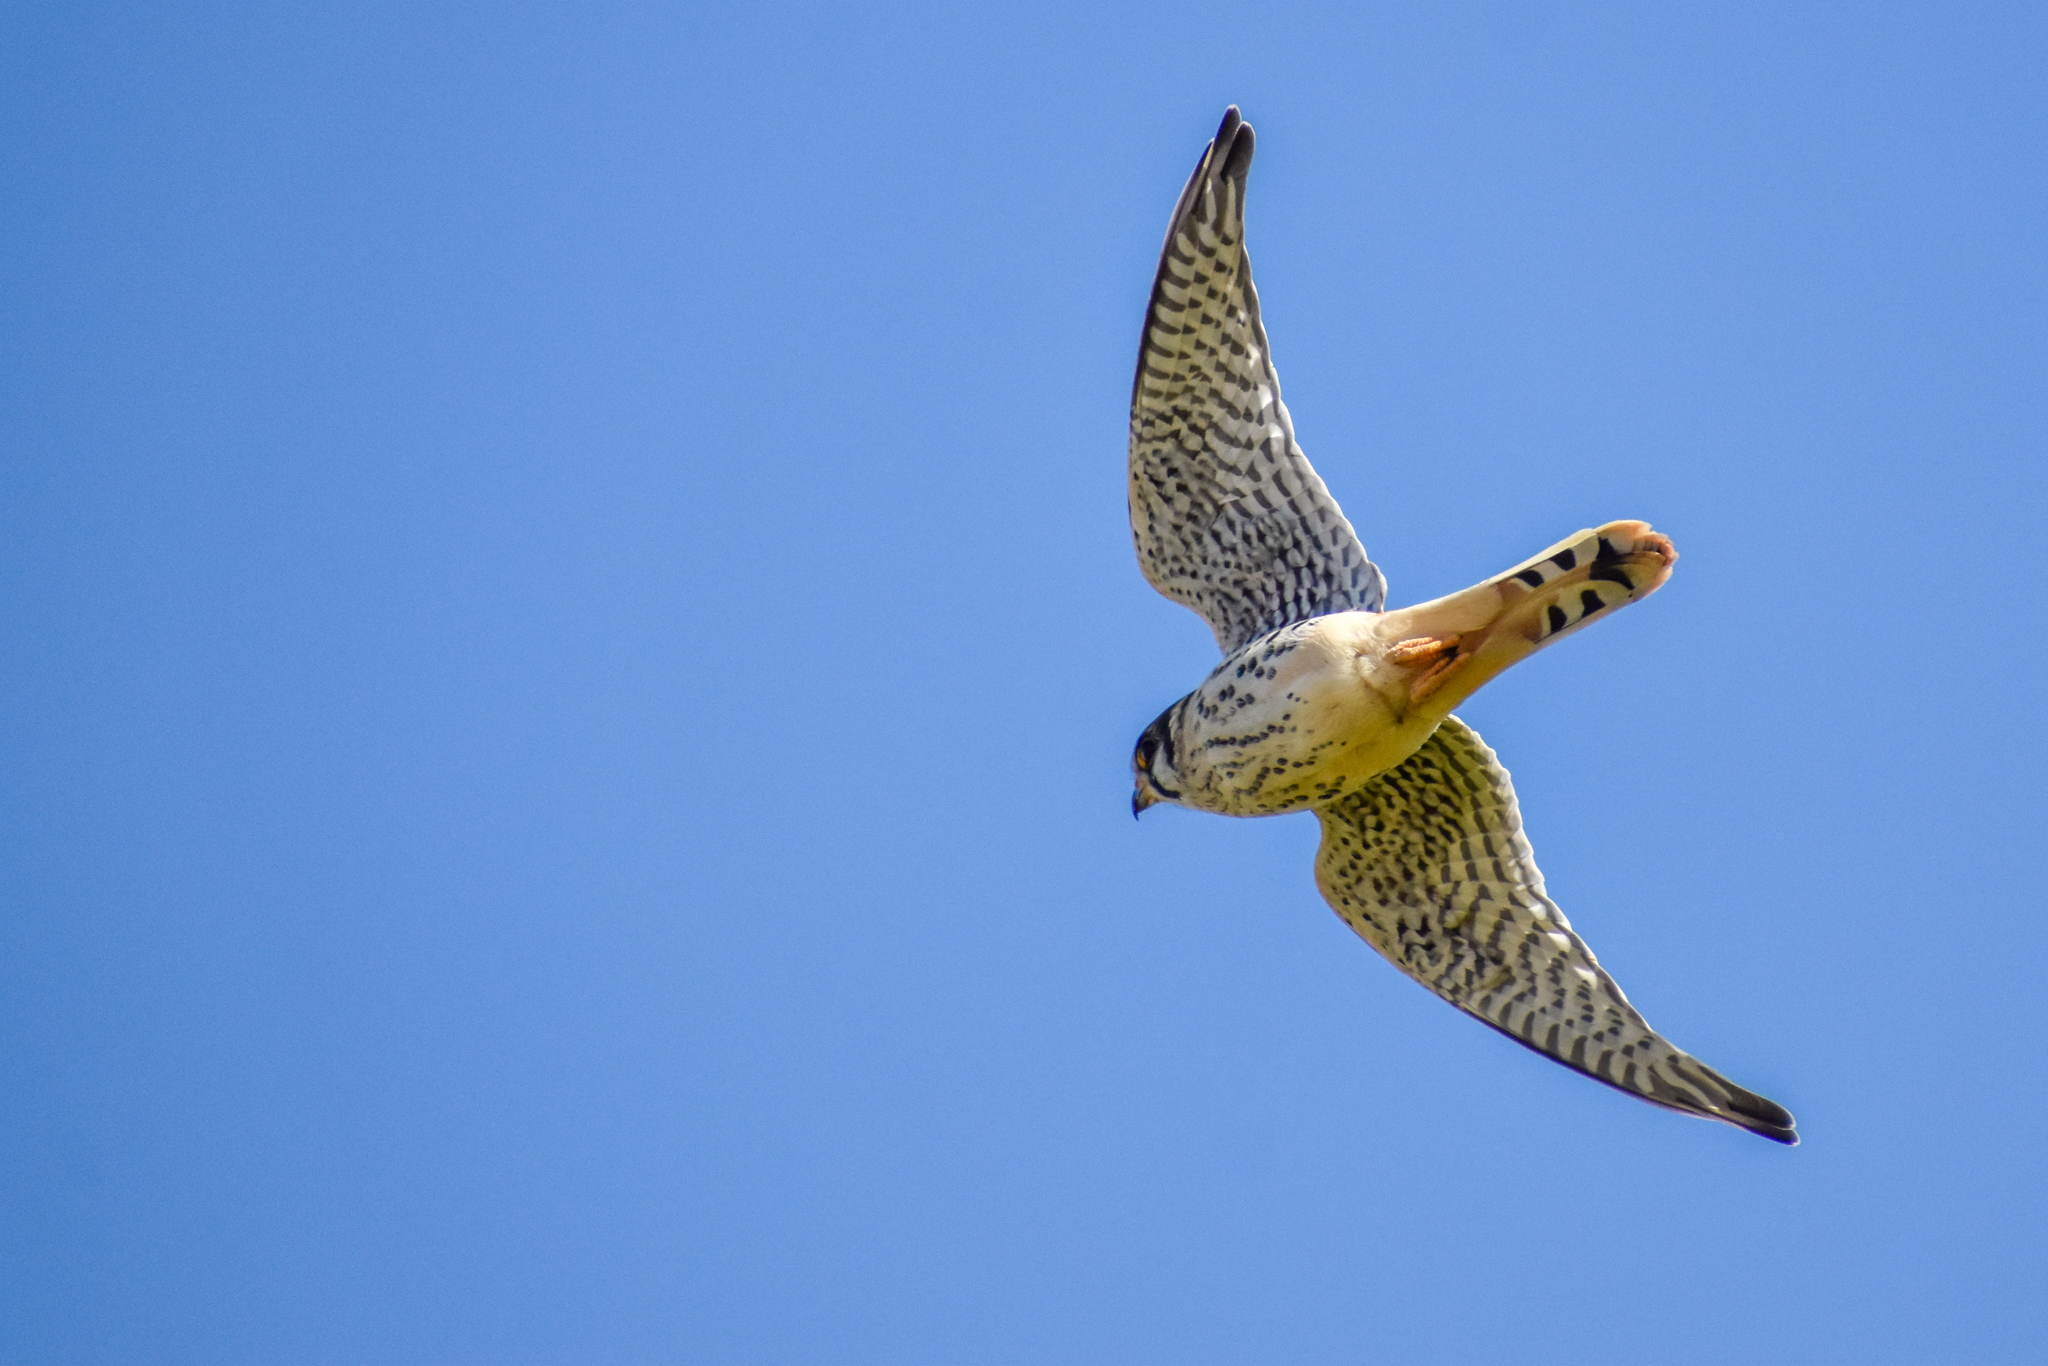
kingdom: Animalia
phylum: Chordata
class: Aves
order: Falconiformes
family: Falconidae
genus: Falco
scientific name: Falco sparverius
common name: American kestrel
